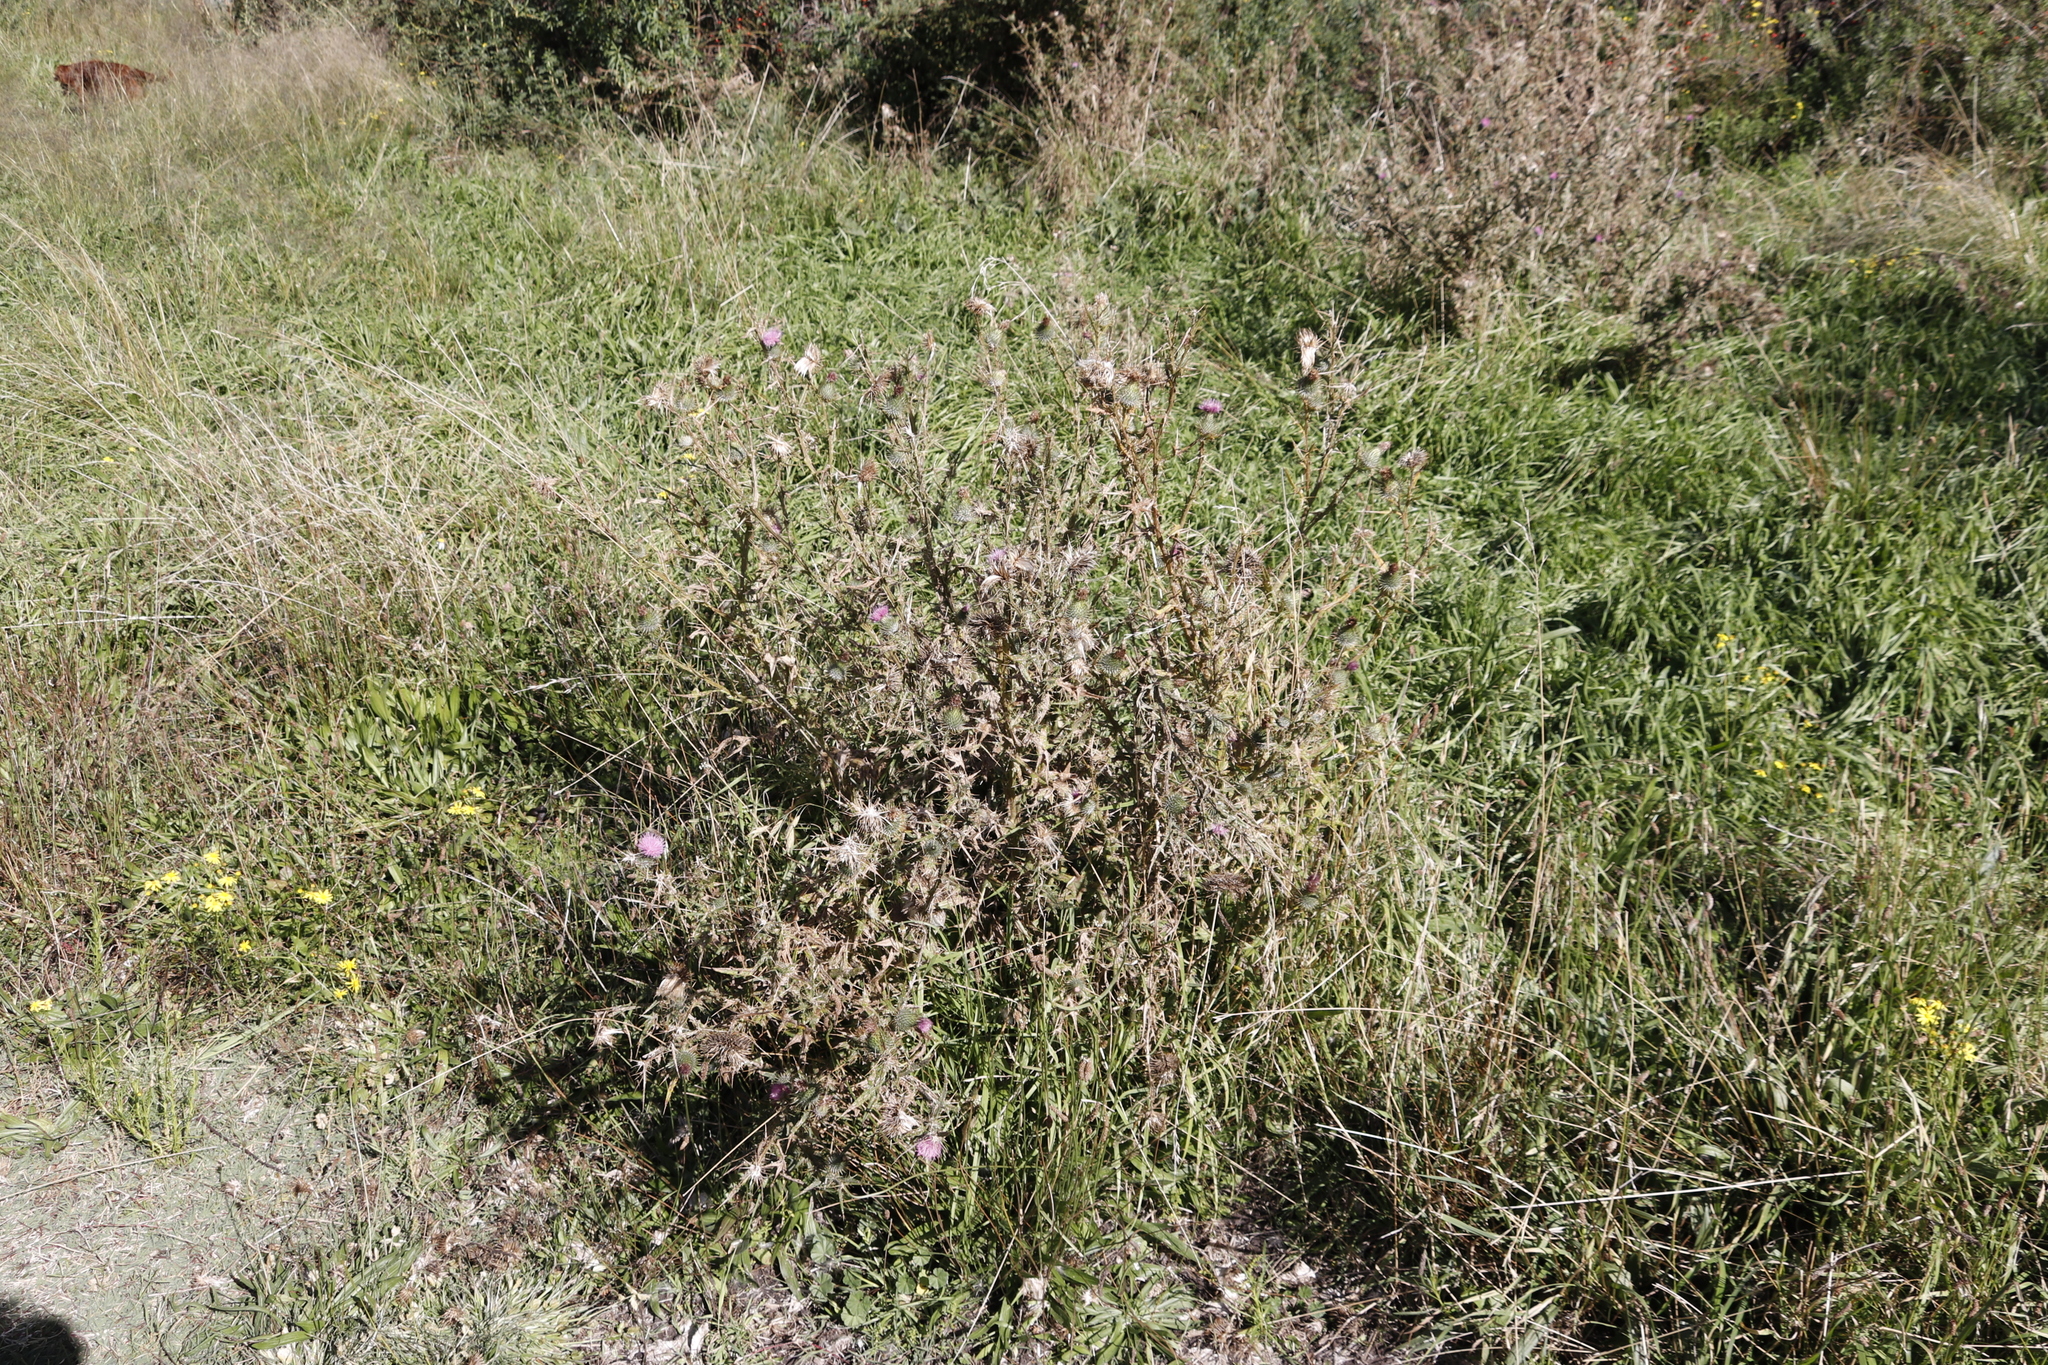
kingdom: Plantae
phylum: Tracheophyta
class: Magnoliopsida
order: Asterales
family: Asteraceae
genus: Cirsium
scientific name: Cirsium vulgare
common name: Bull thistle
